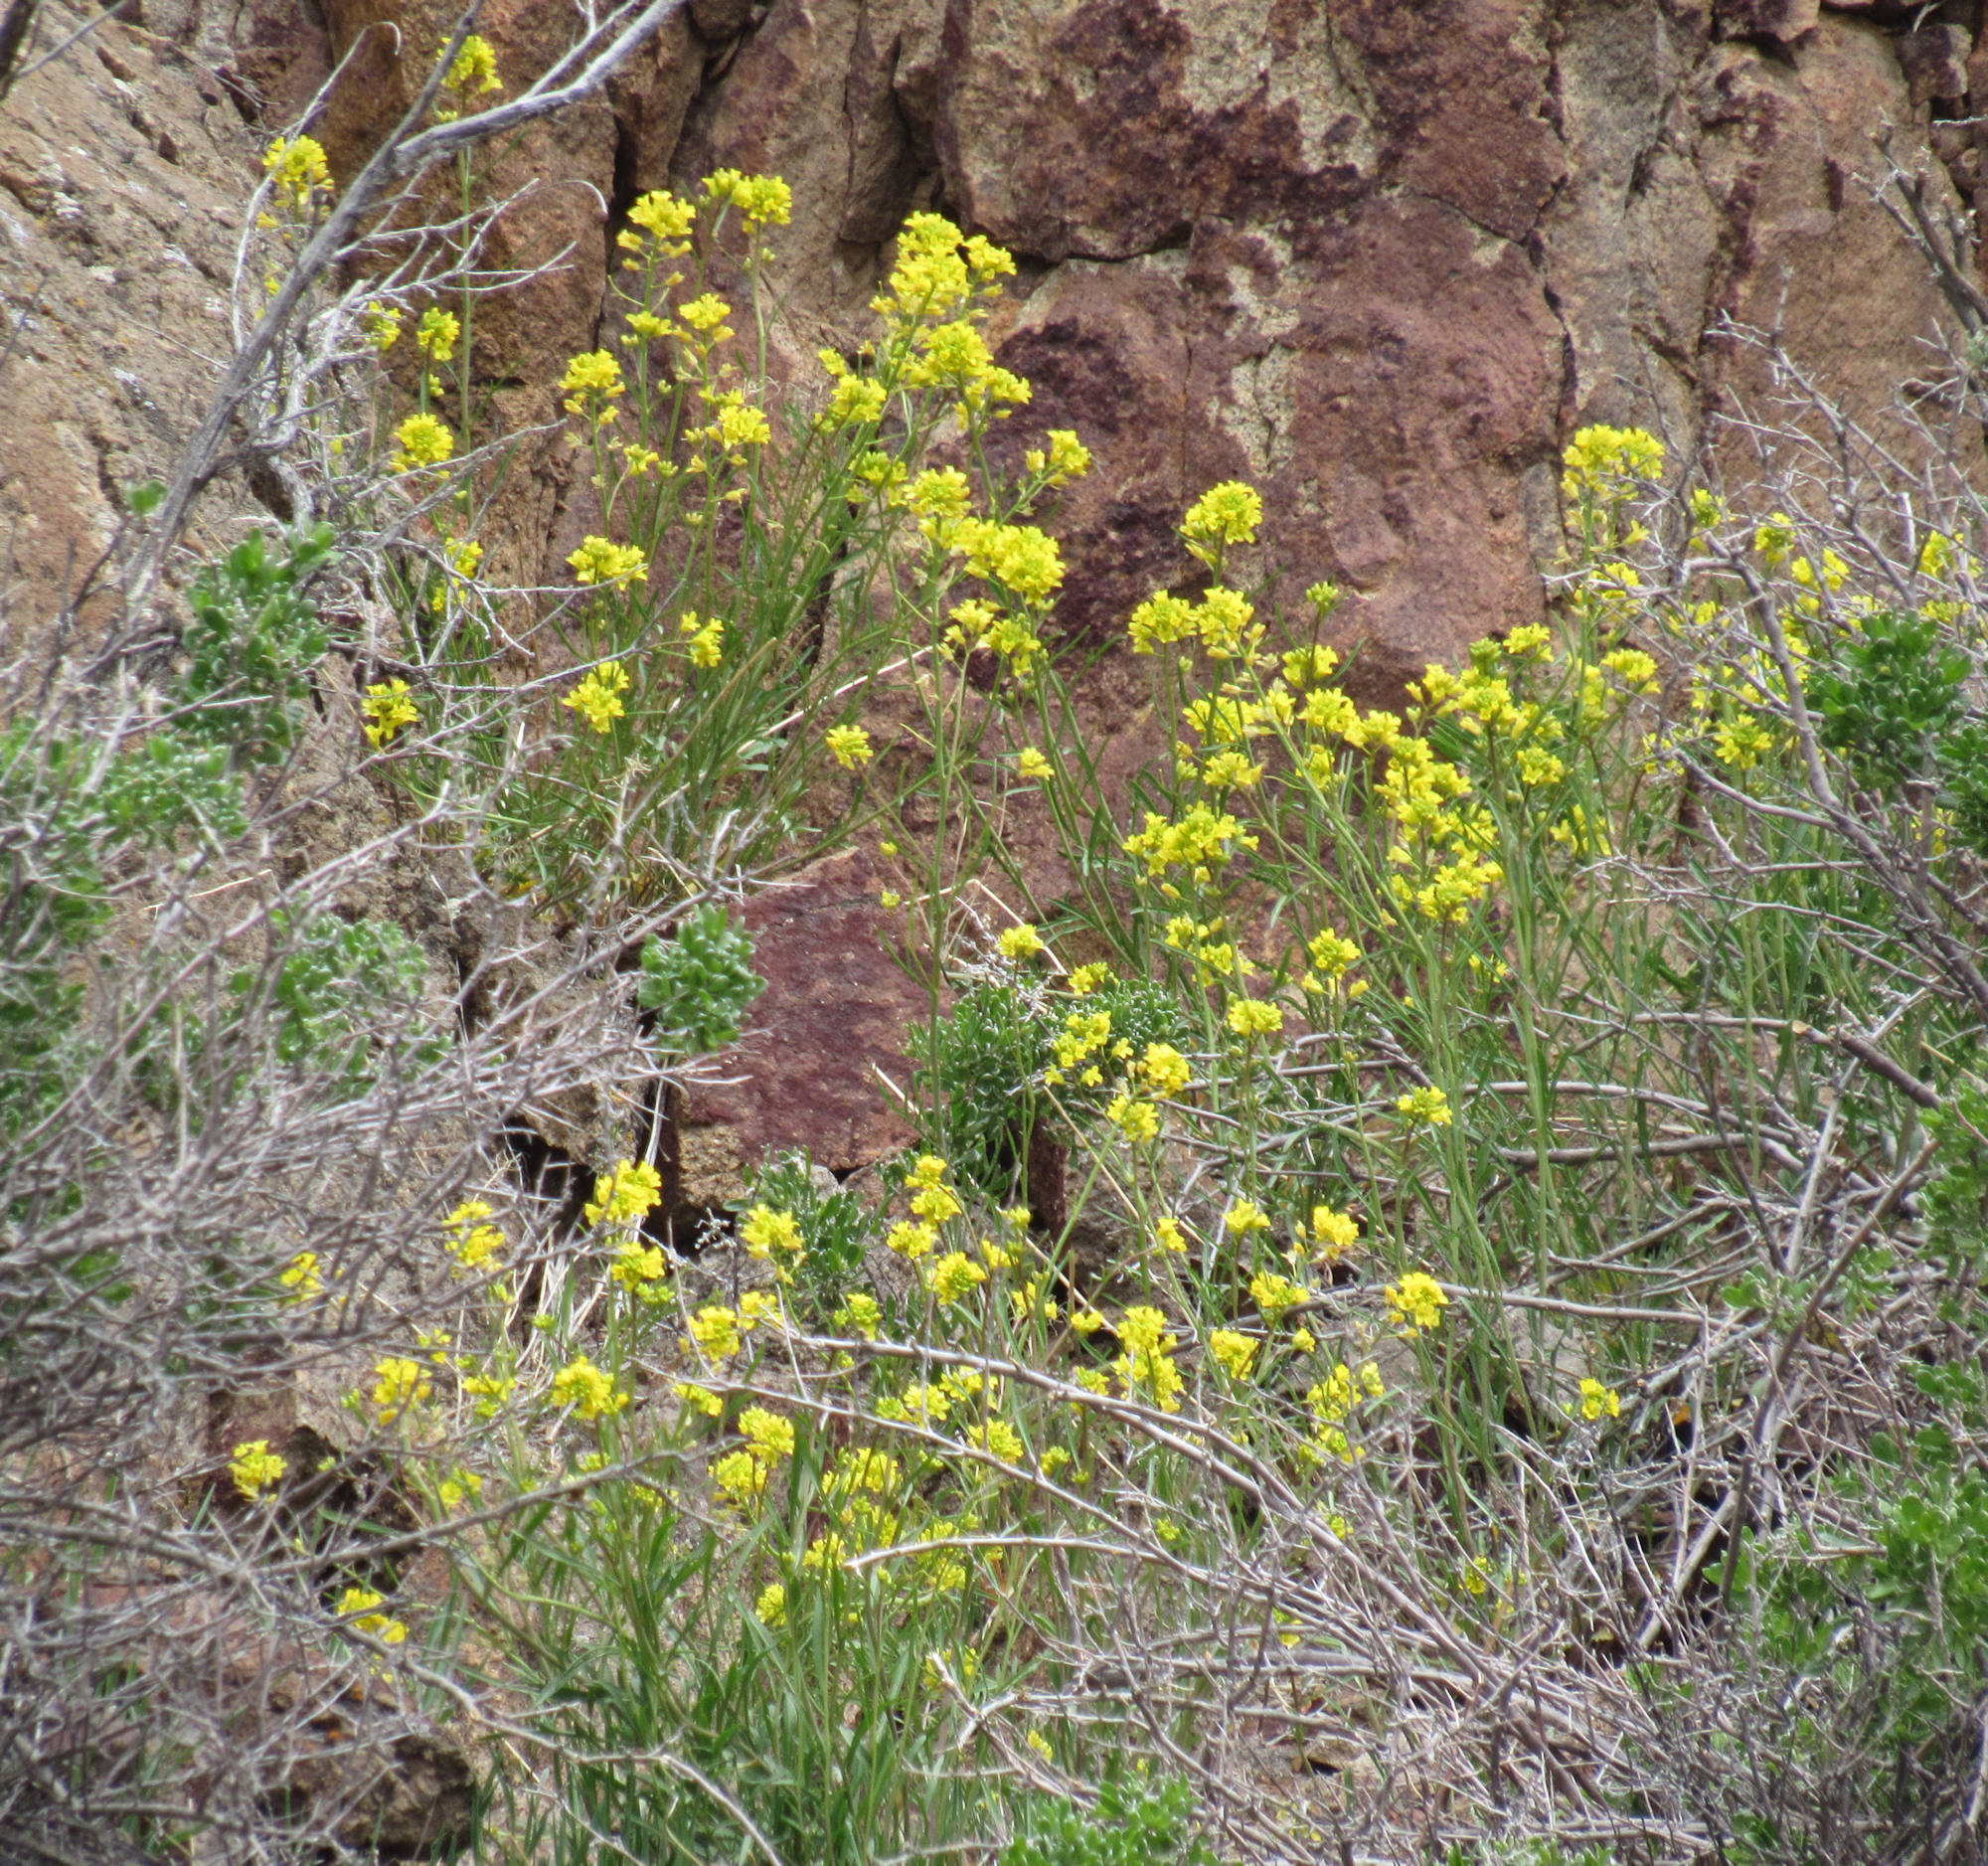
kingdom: Plantae
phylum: Tracheophyta
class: Magnoliopsida
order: Brassicales
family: Brassicaceae
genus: Sisymbrium
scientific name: Sisymbrium linifolium
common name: Salmon river plains mustard
